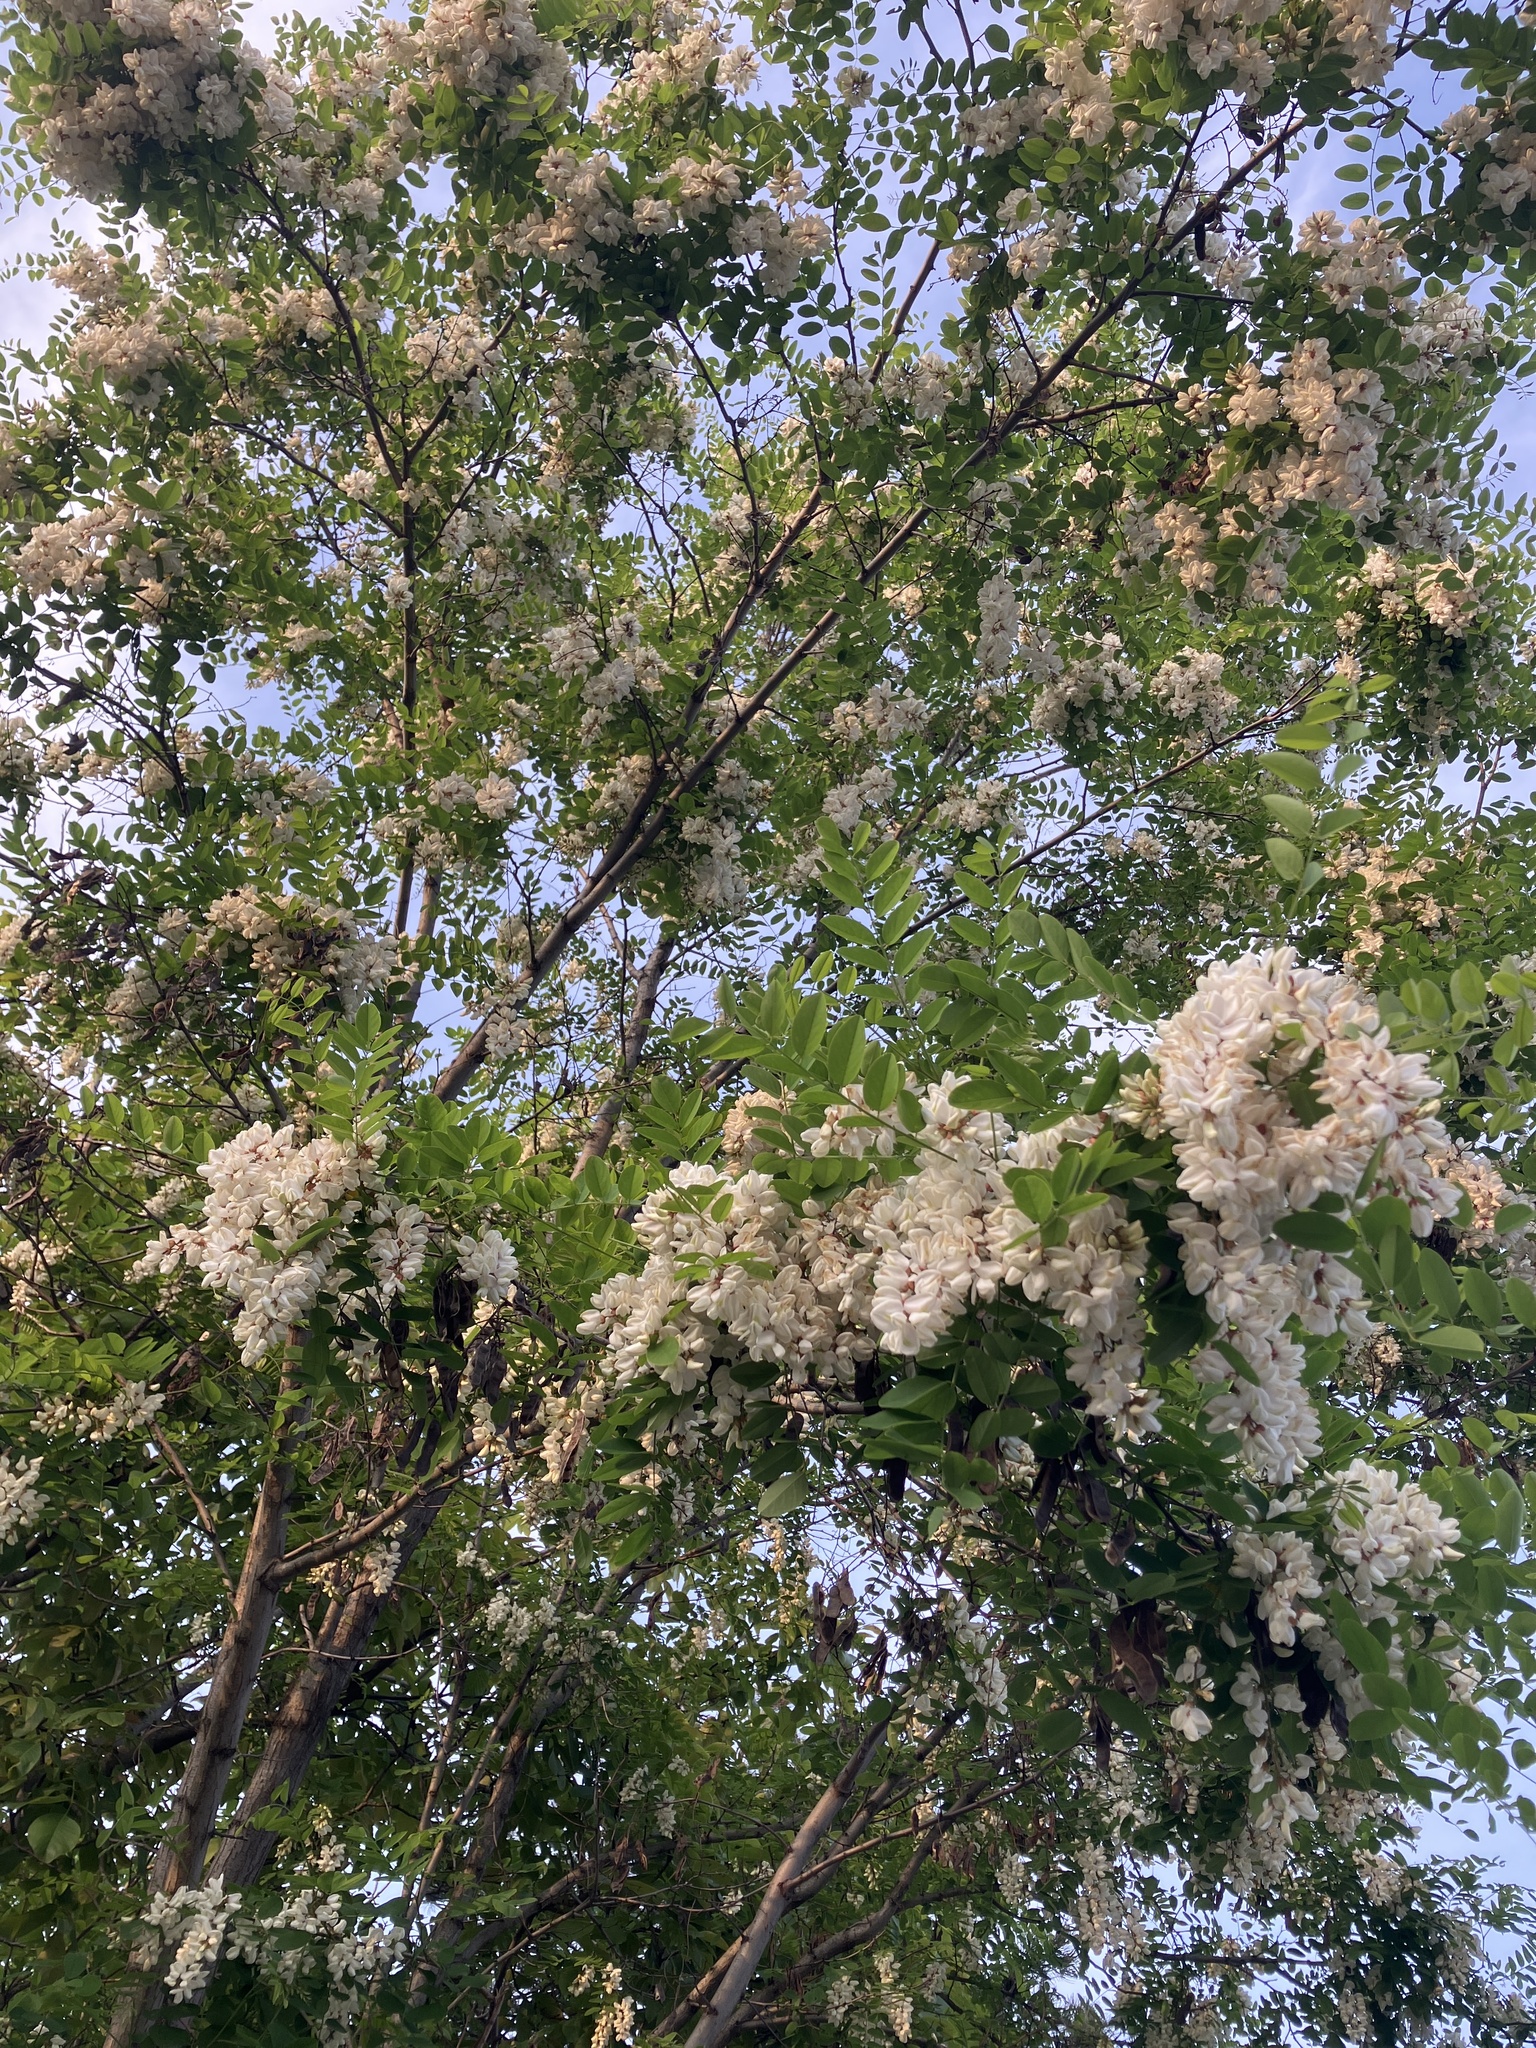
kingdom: Plantae
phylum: Tracheophyta
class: Magnoliopsida
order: Fabales
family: Fabaceae
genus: Robinia
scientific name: Robinia pseudoacacia
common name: Black locust
